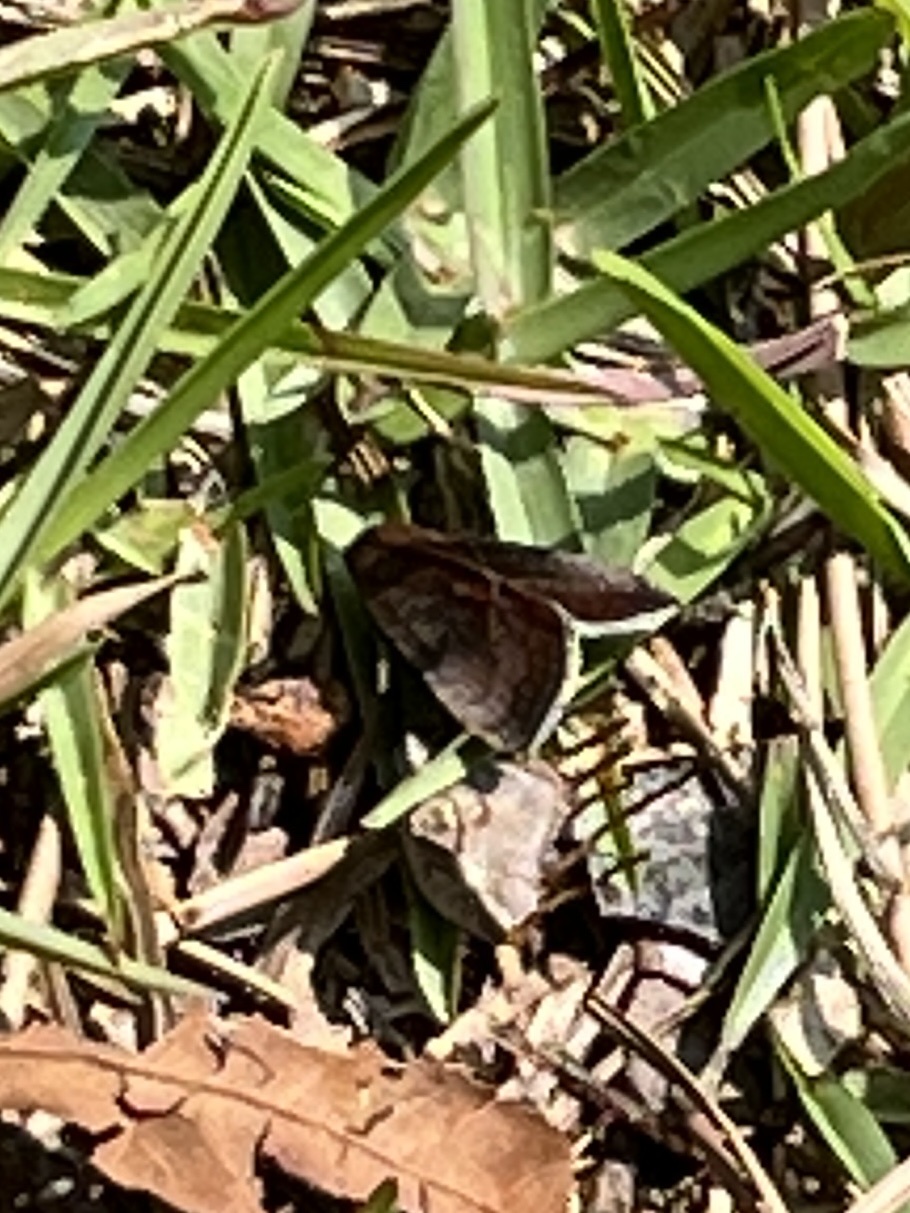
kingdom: Animalia
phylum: Arthropoda
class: Insecta
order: Lepidoptera
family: Noctuidae
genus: Galgula
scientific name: Galgula partita
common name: Wedgeling
